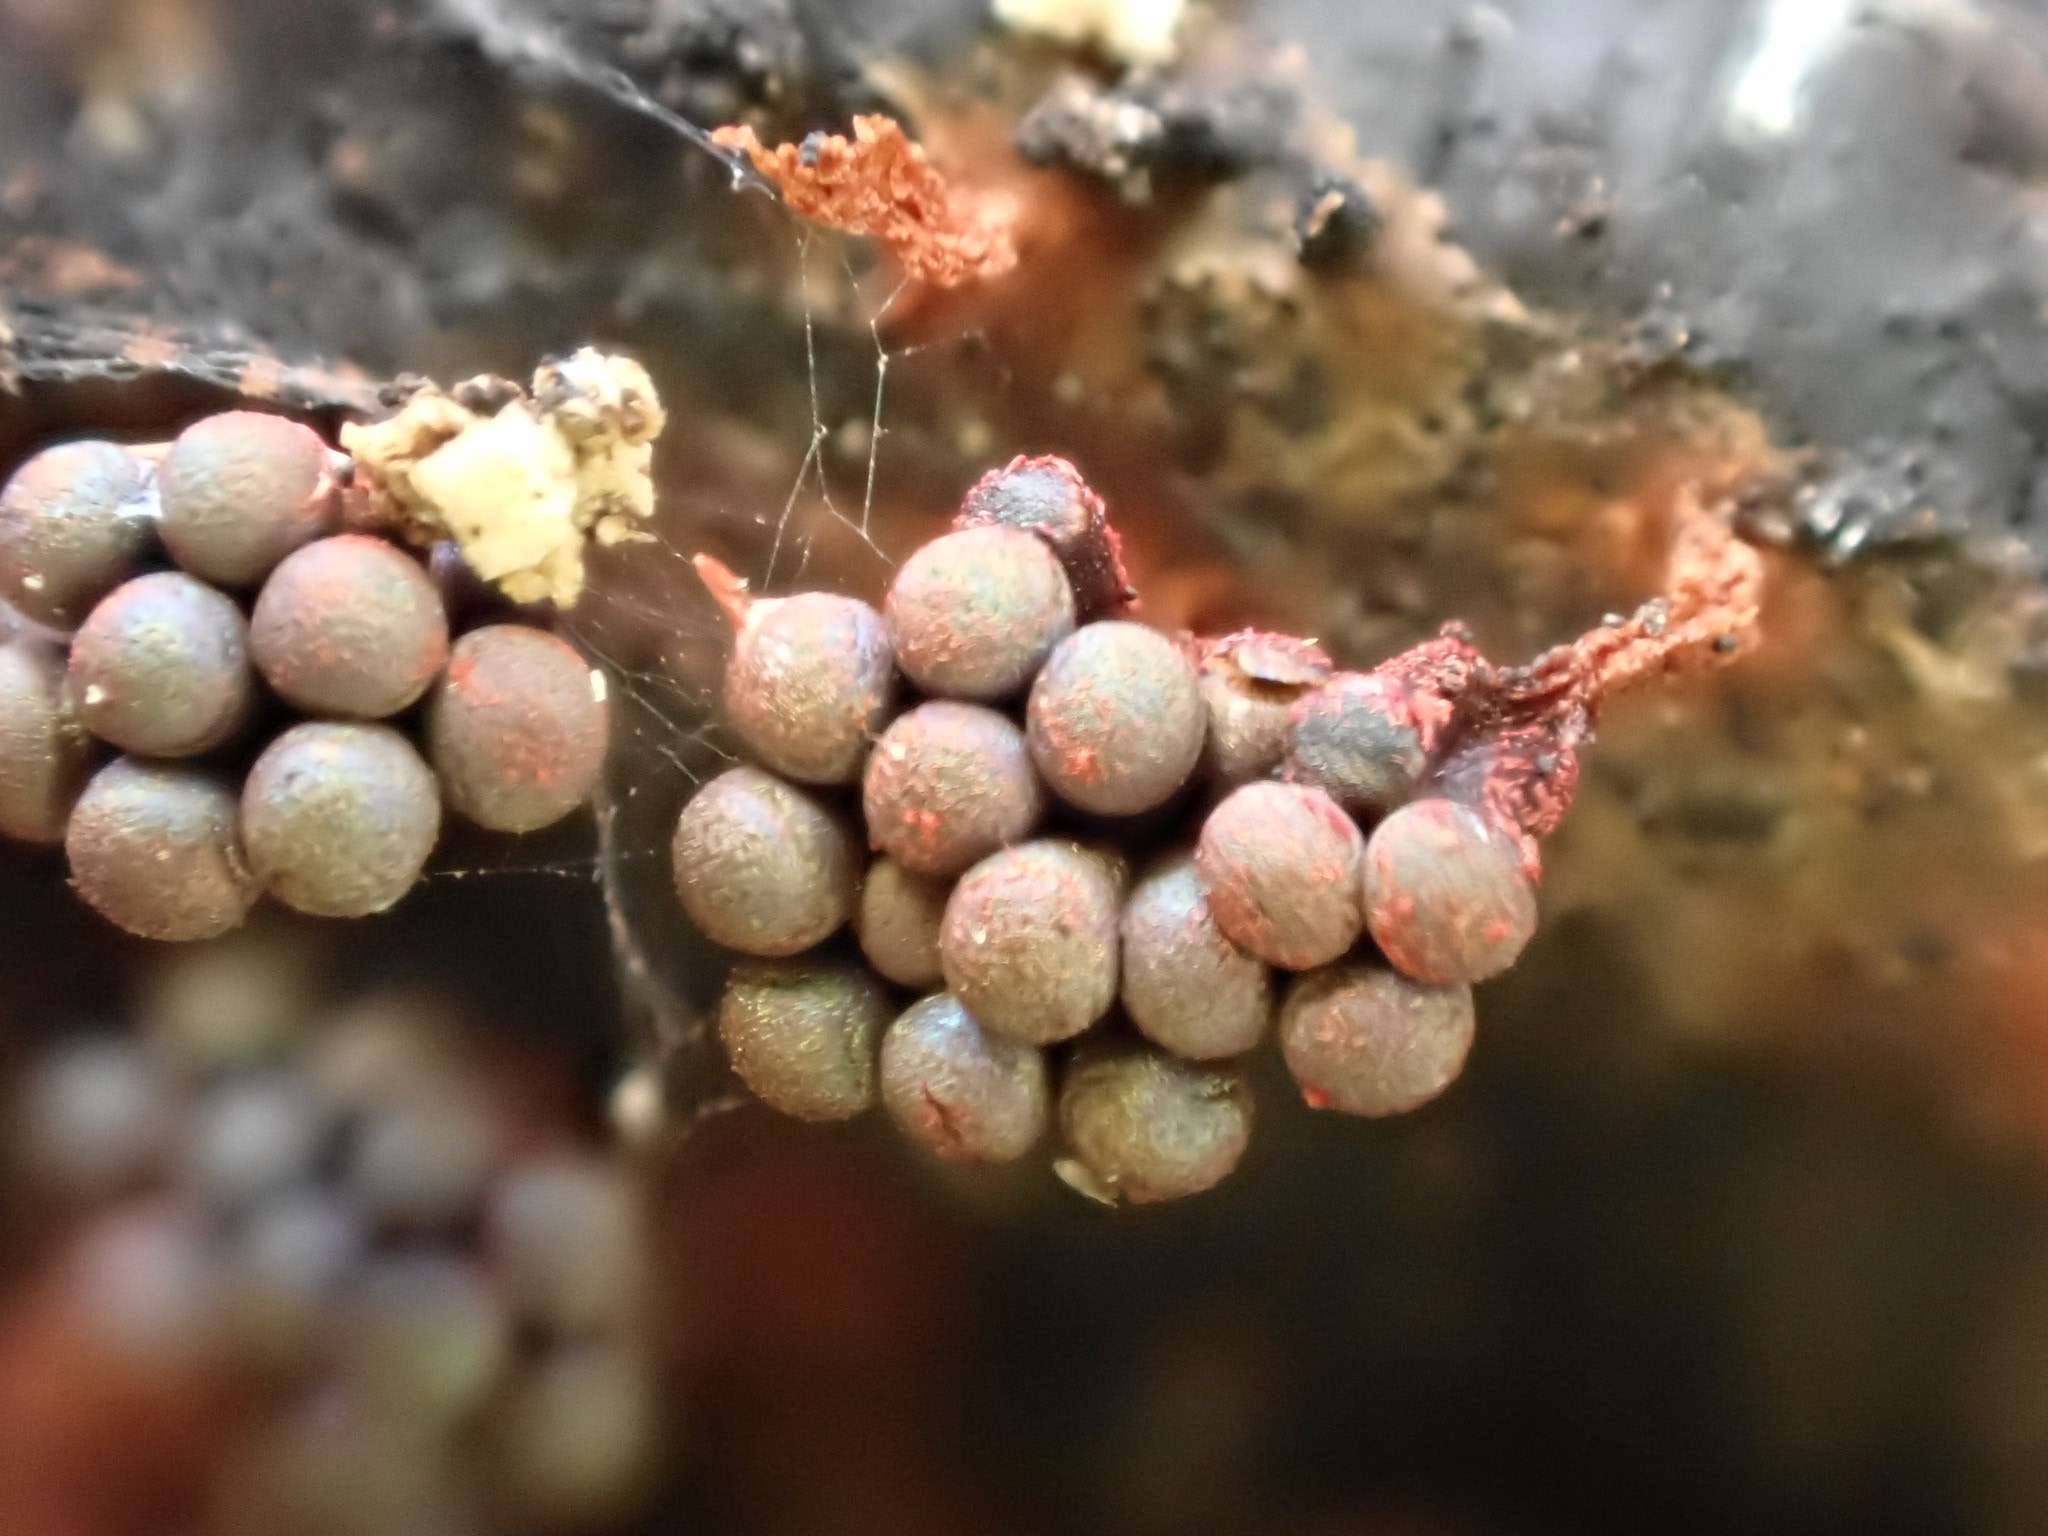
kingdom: Protozoa
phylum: Mycetozoa
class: Myxomycetes
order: Trichiales
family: Trichiaceae
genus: Metatrichia
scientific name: Metatrichia vesparia
